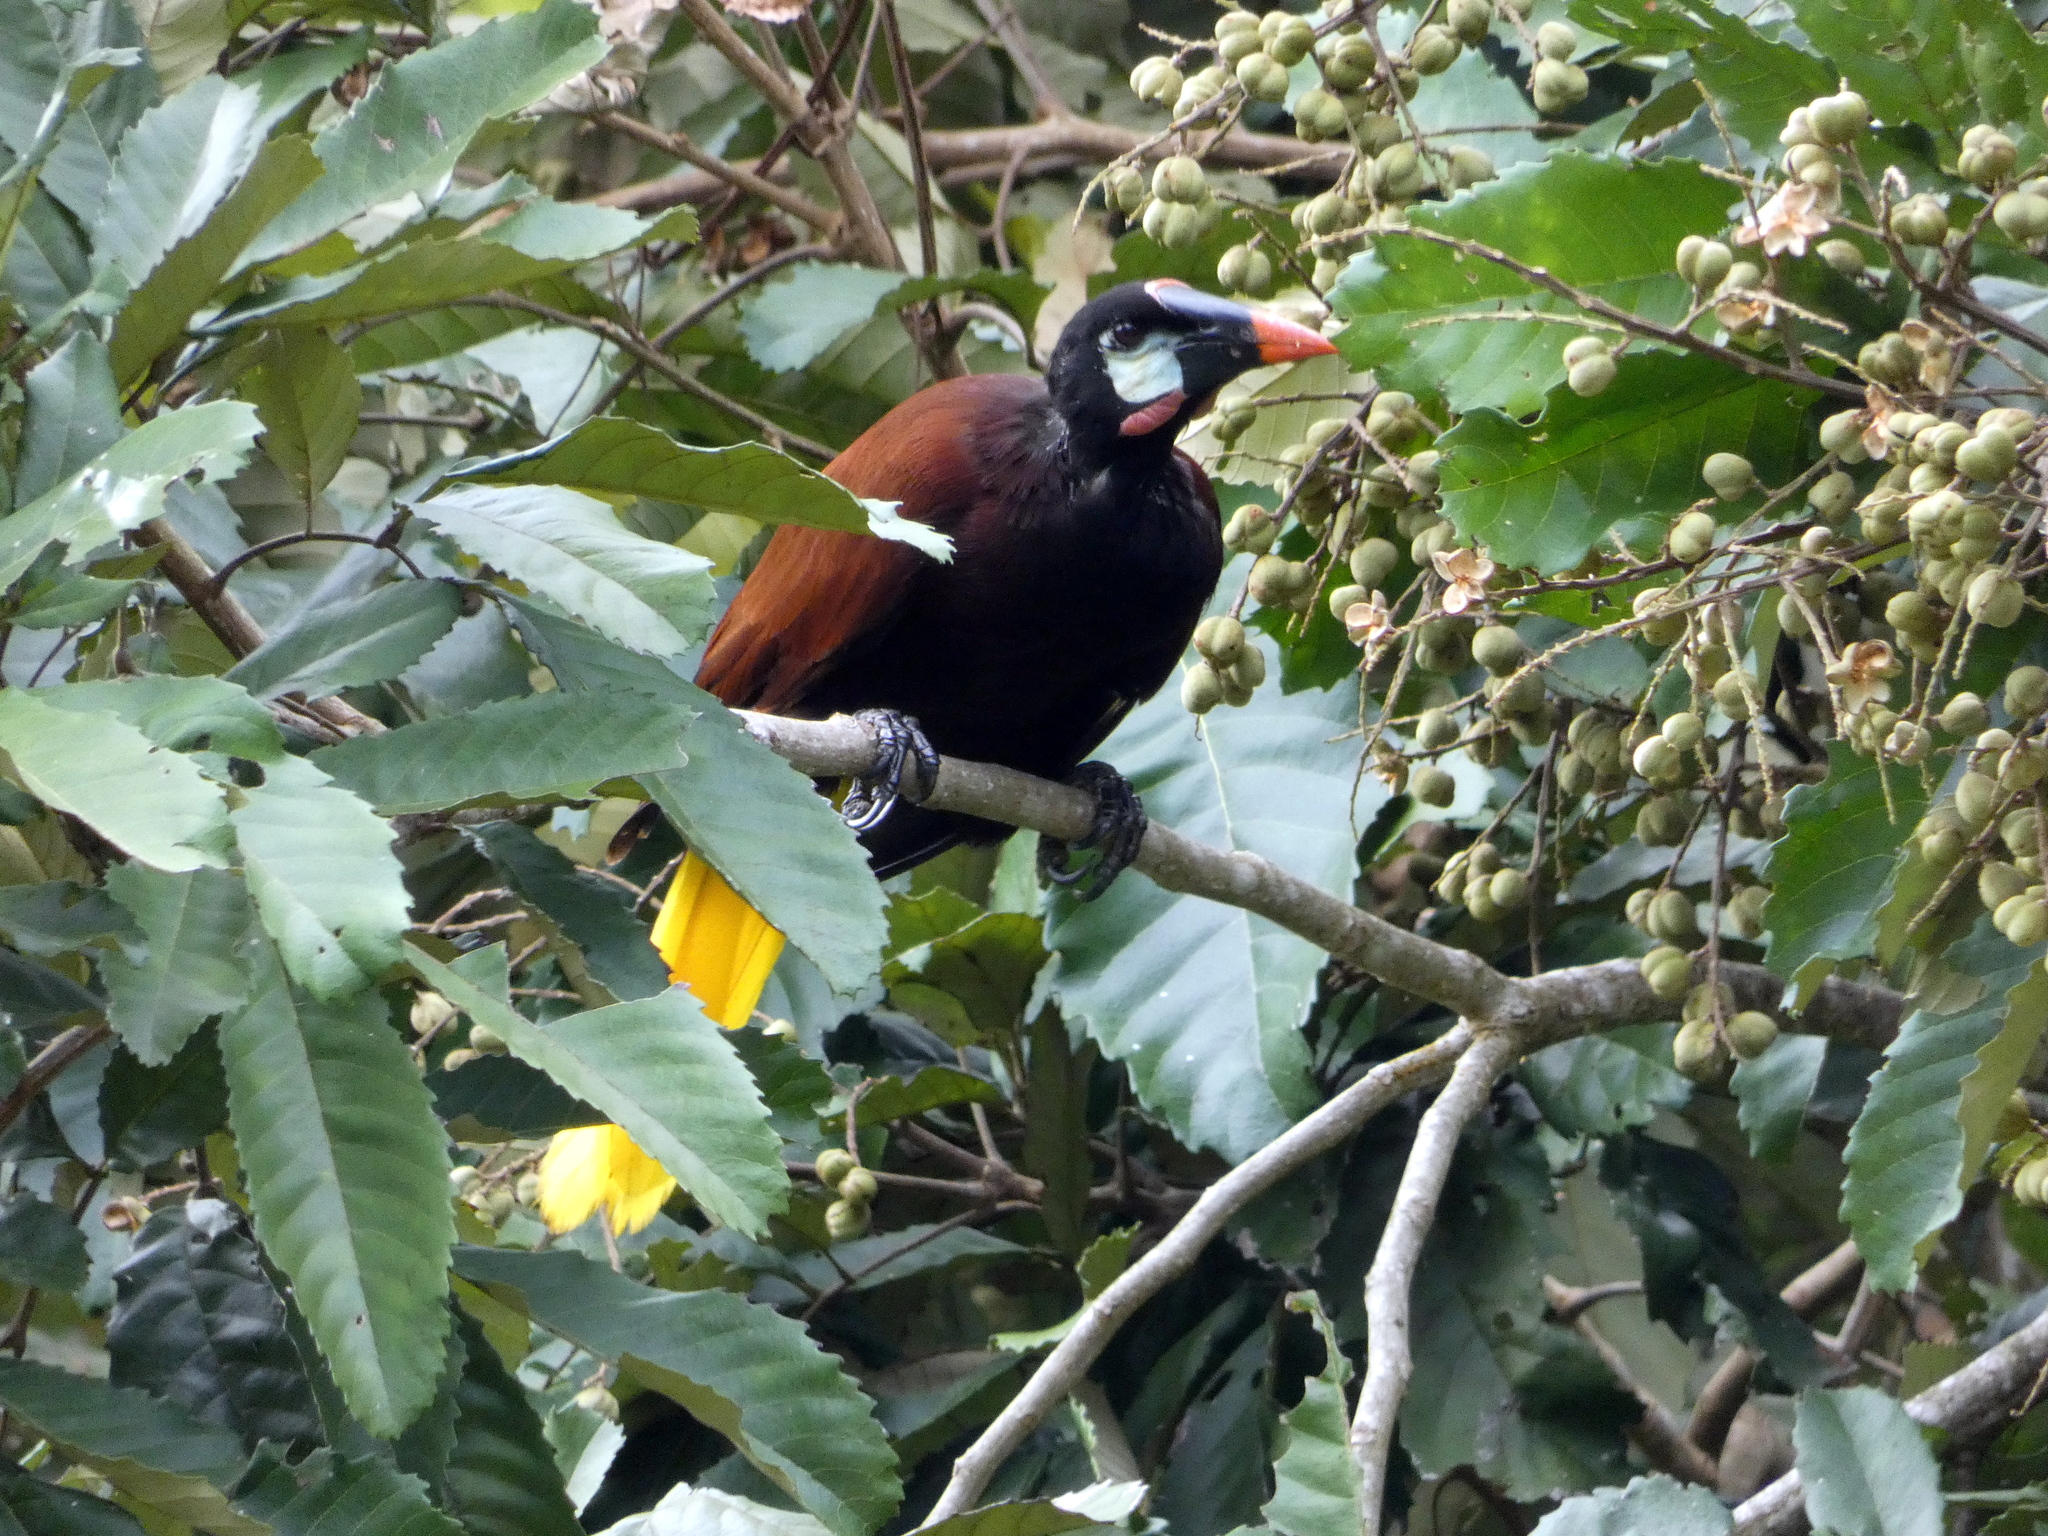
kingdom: Animalia
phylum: Chordata
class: Aves
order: Passeriformes
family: Icteridae
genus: Psarocolius
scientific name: Psarocolius montezuma
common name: Montezuma oropendola
